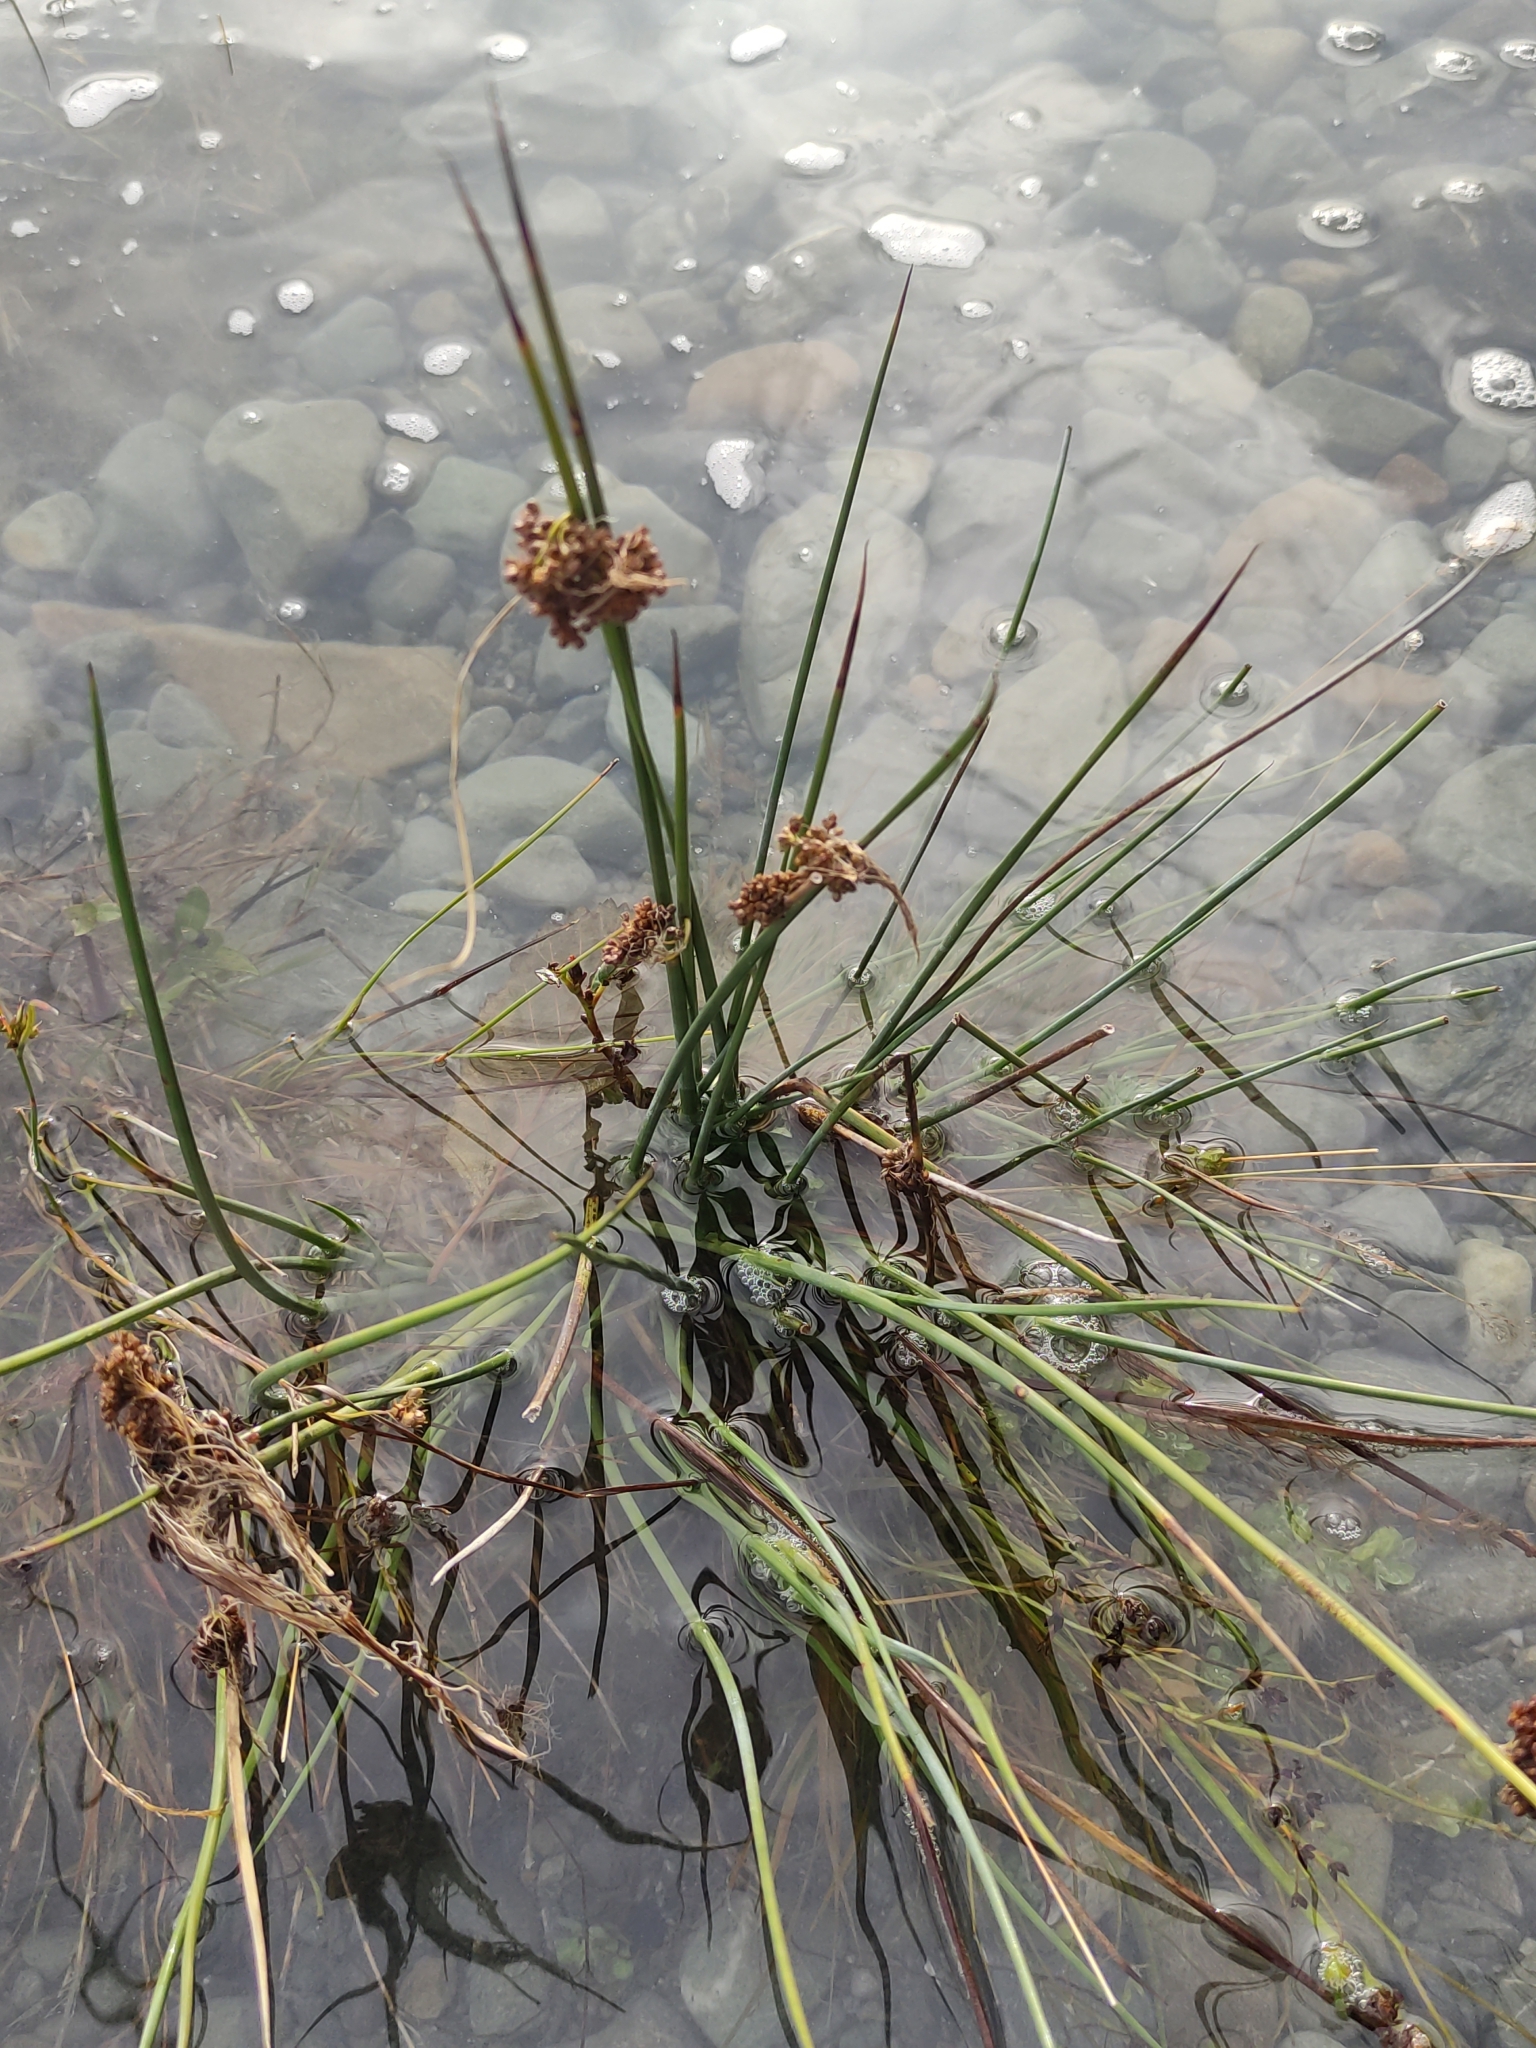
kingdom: Plantae
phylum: Tracheophyta
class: Liliopsida
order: Poales
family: Juncaceae
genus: Juncus
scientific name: Juncus effusus
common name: Soft rush
